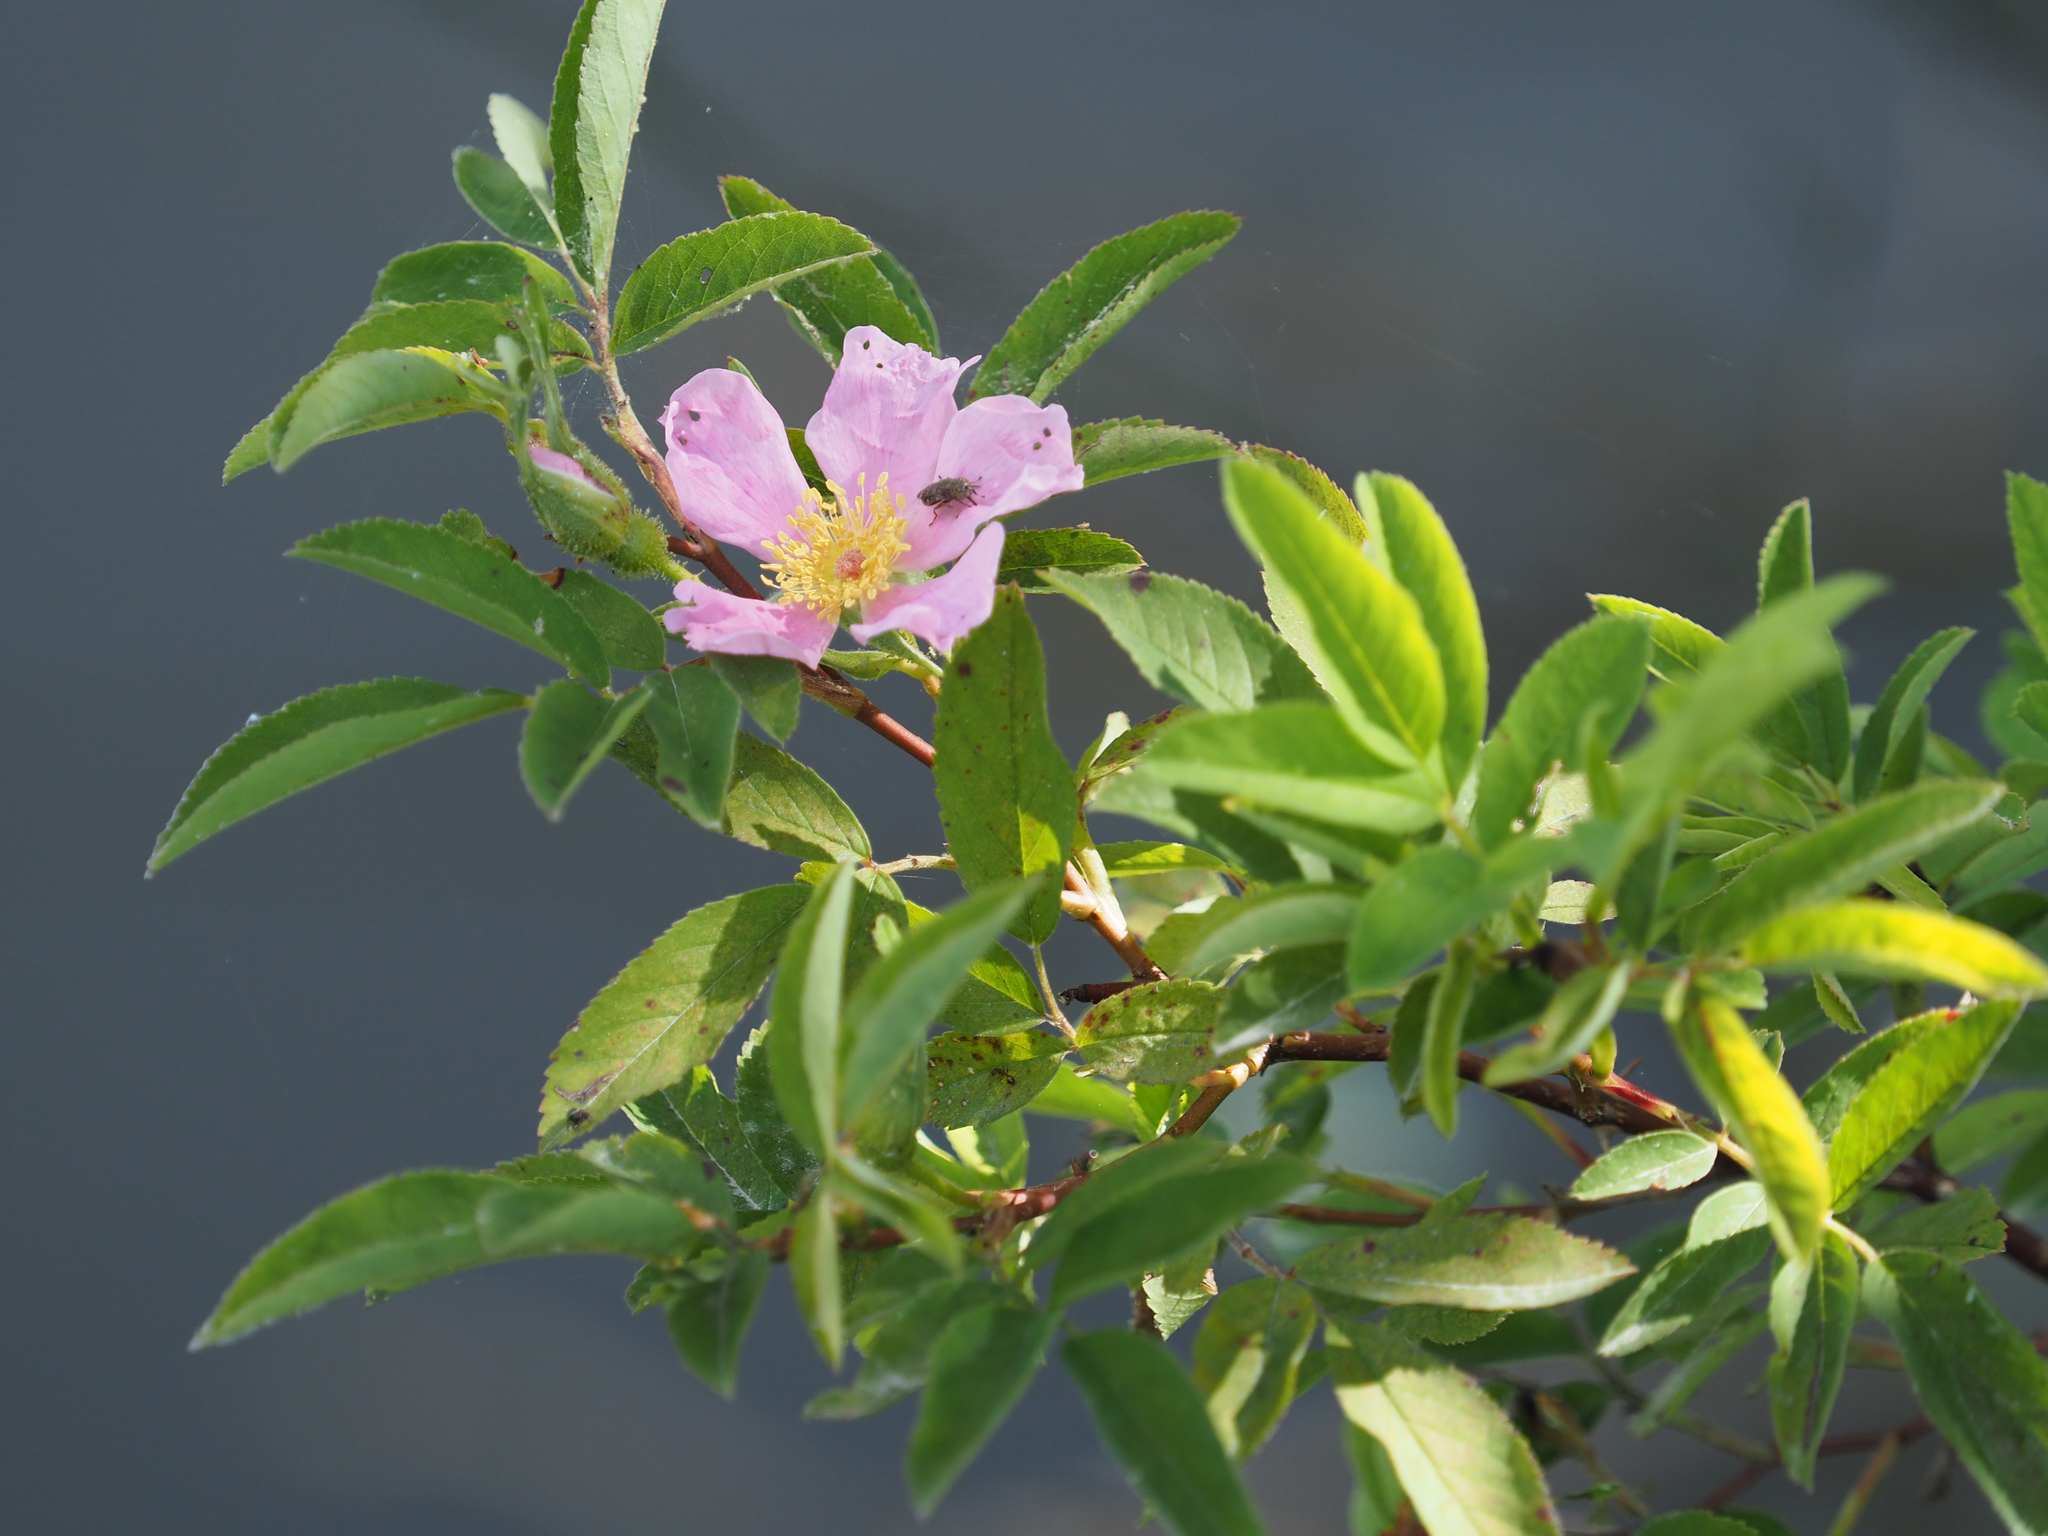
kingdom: Plantae
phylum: Tracheophyta
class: Magnoliopsida
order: Rosales
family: Rosaceae
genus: Rosa
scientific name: Rosa palustris
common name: Swamp rose
